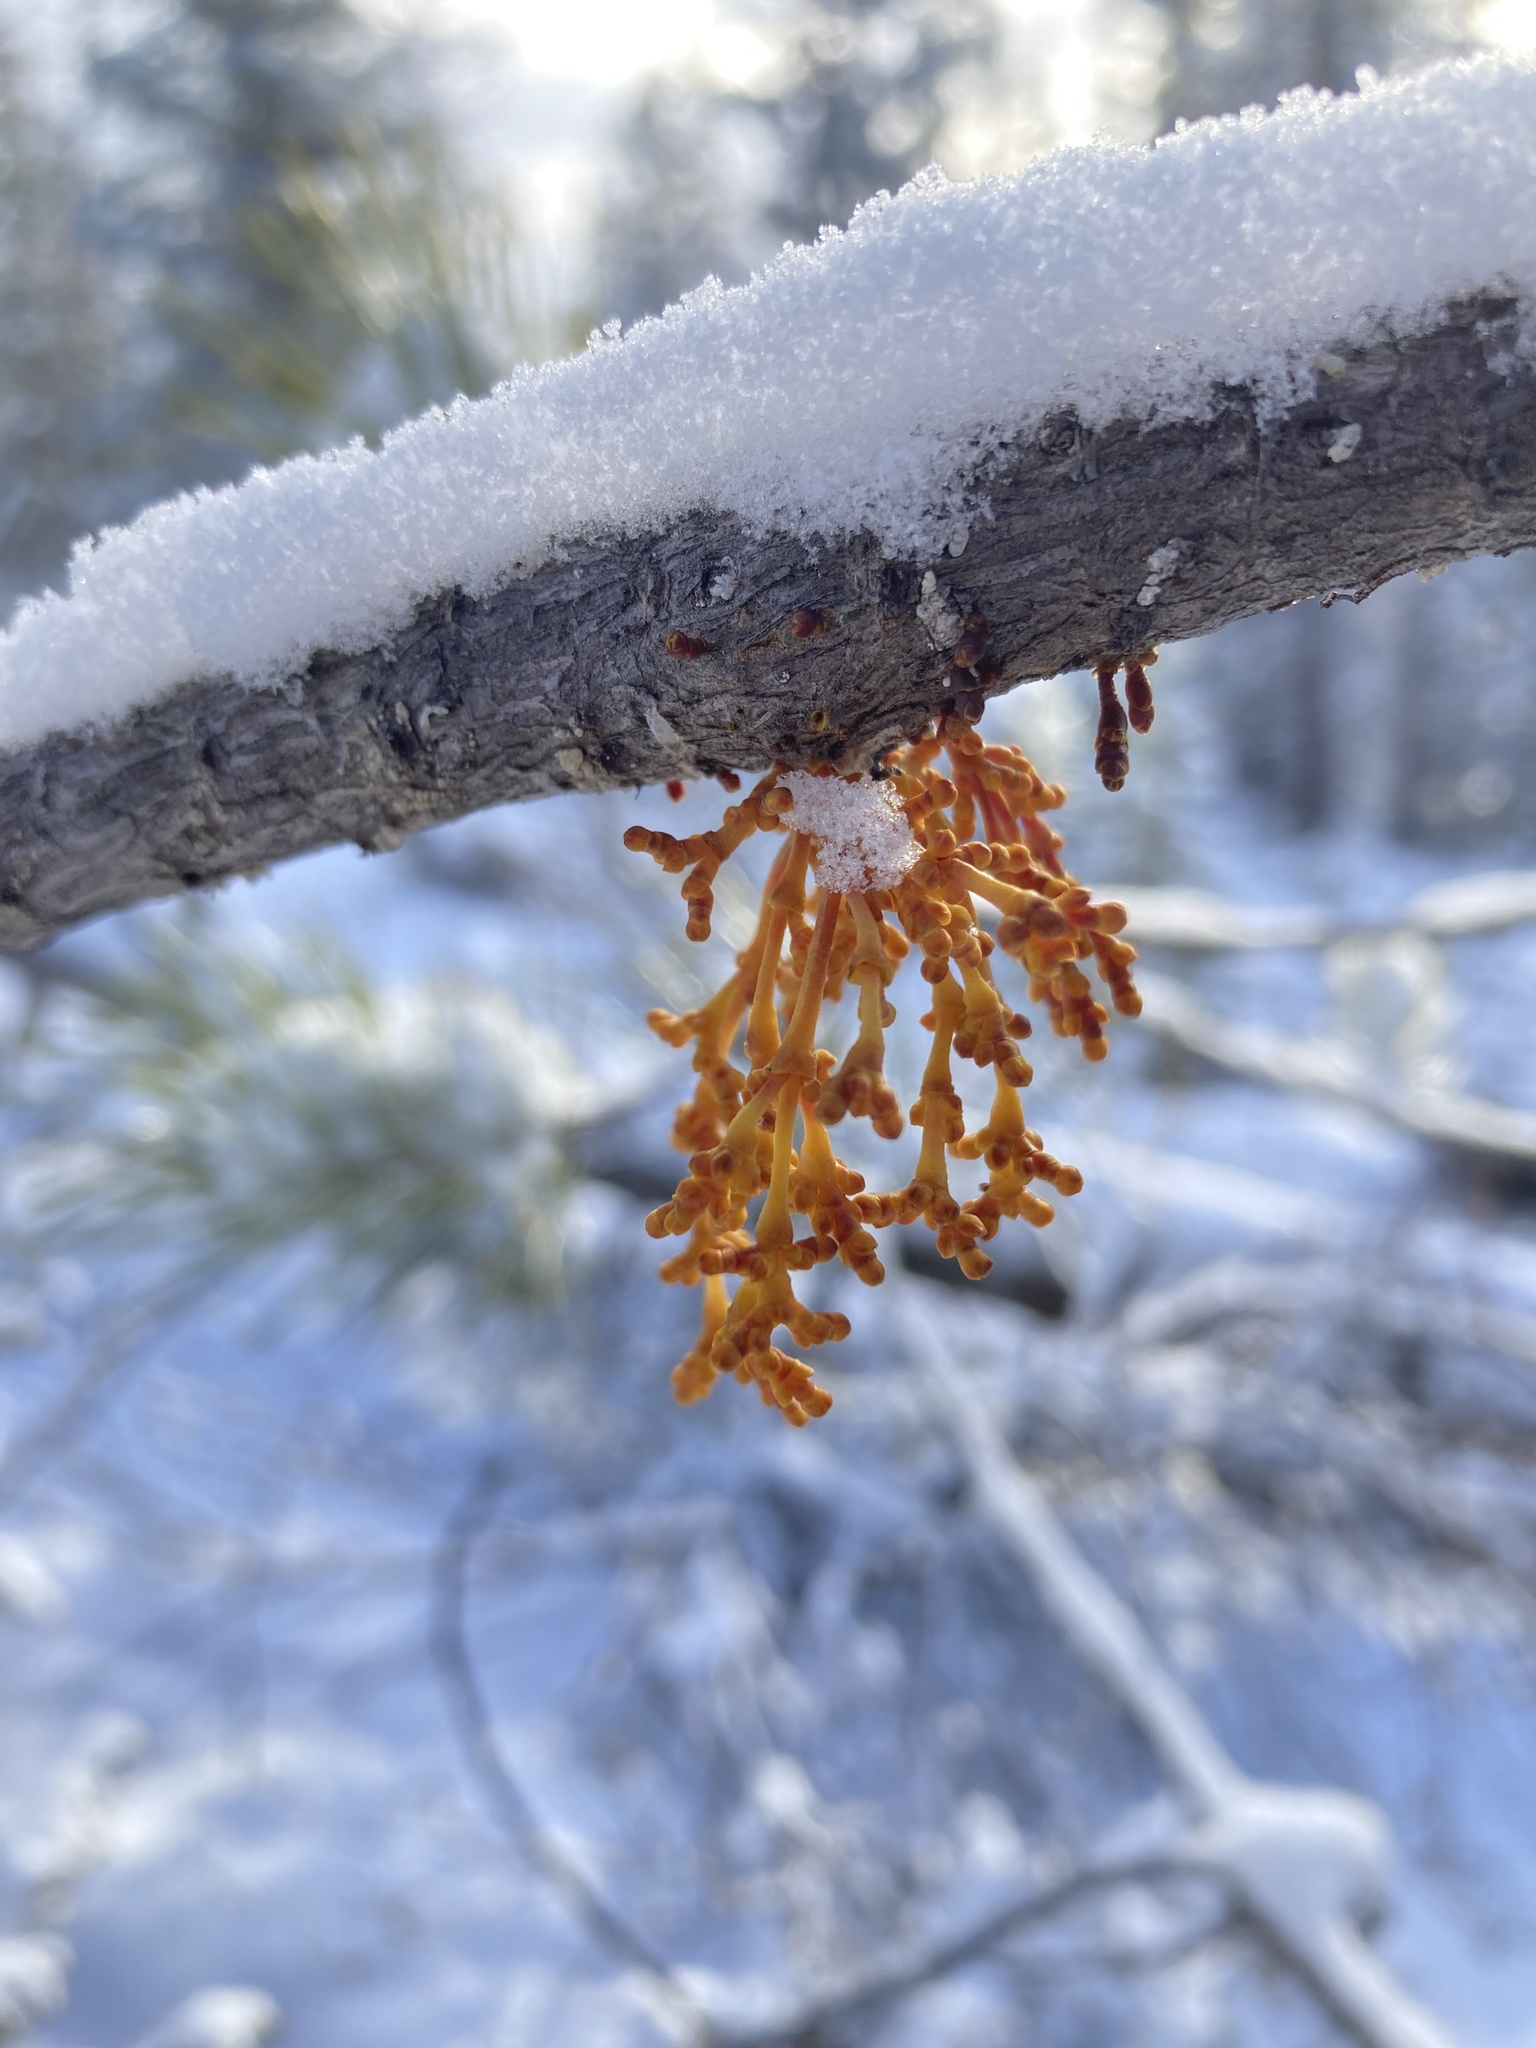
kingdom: Plantae
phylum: Tracheophyta
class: Magnoliopsida
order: Santalales
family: Viscaceae
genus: Arceuthobium
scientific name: Arceuthobium americanum
